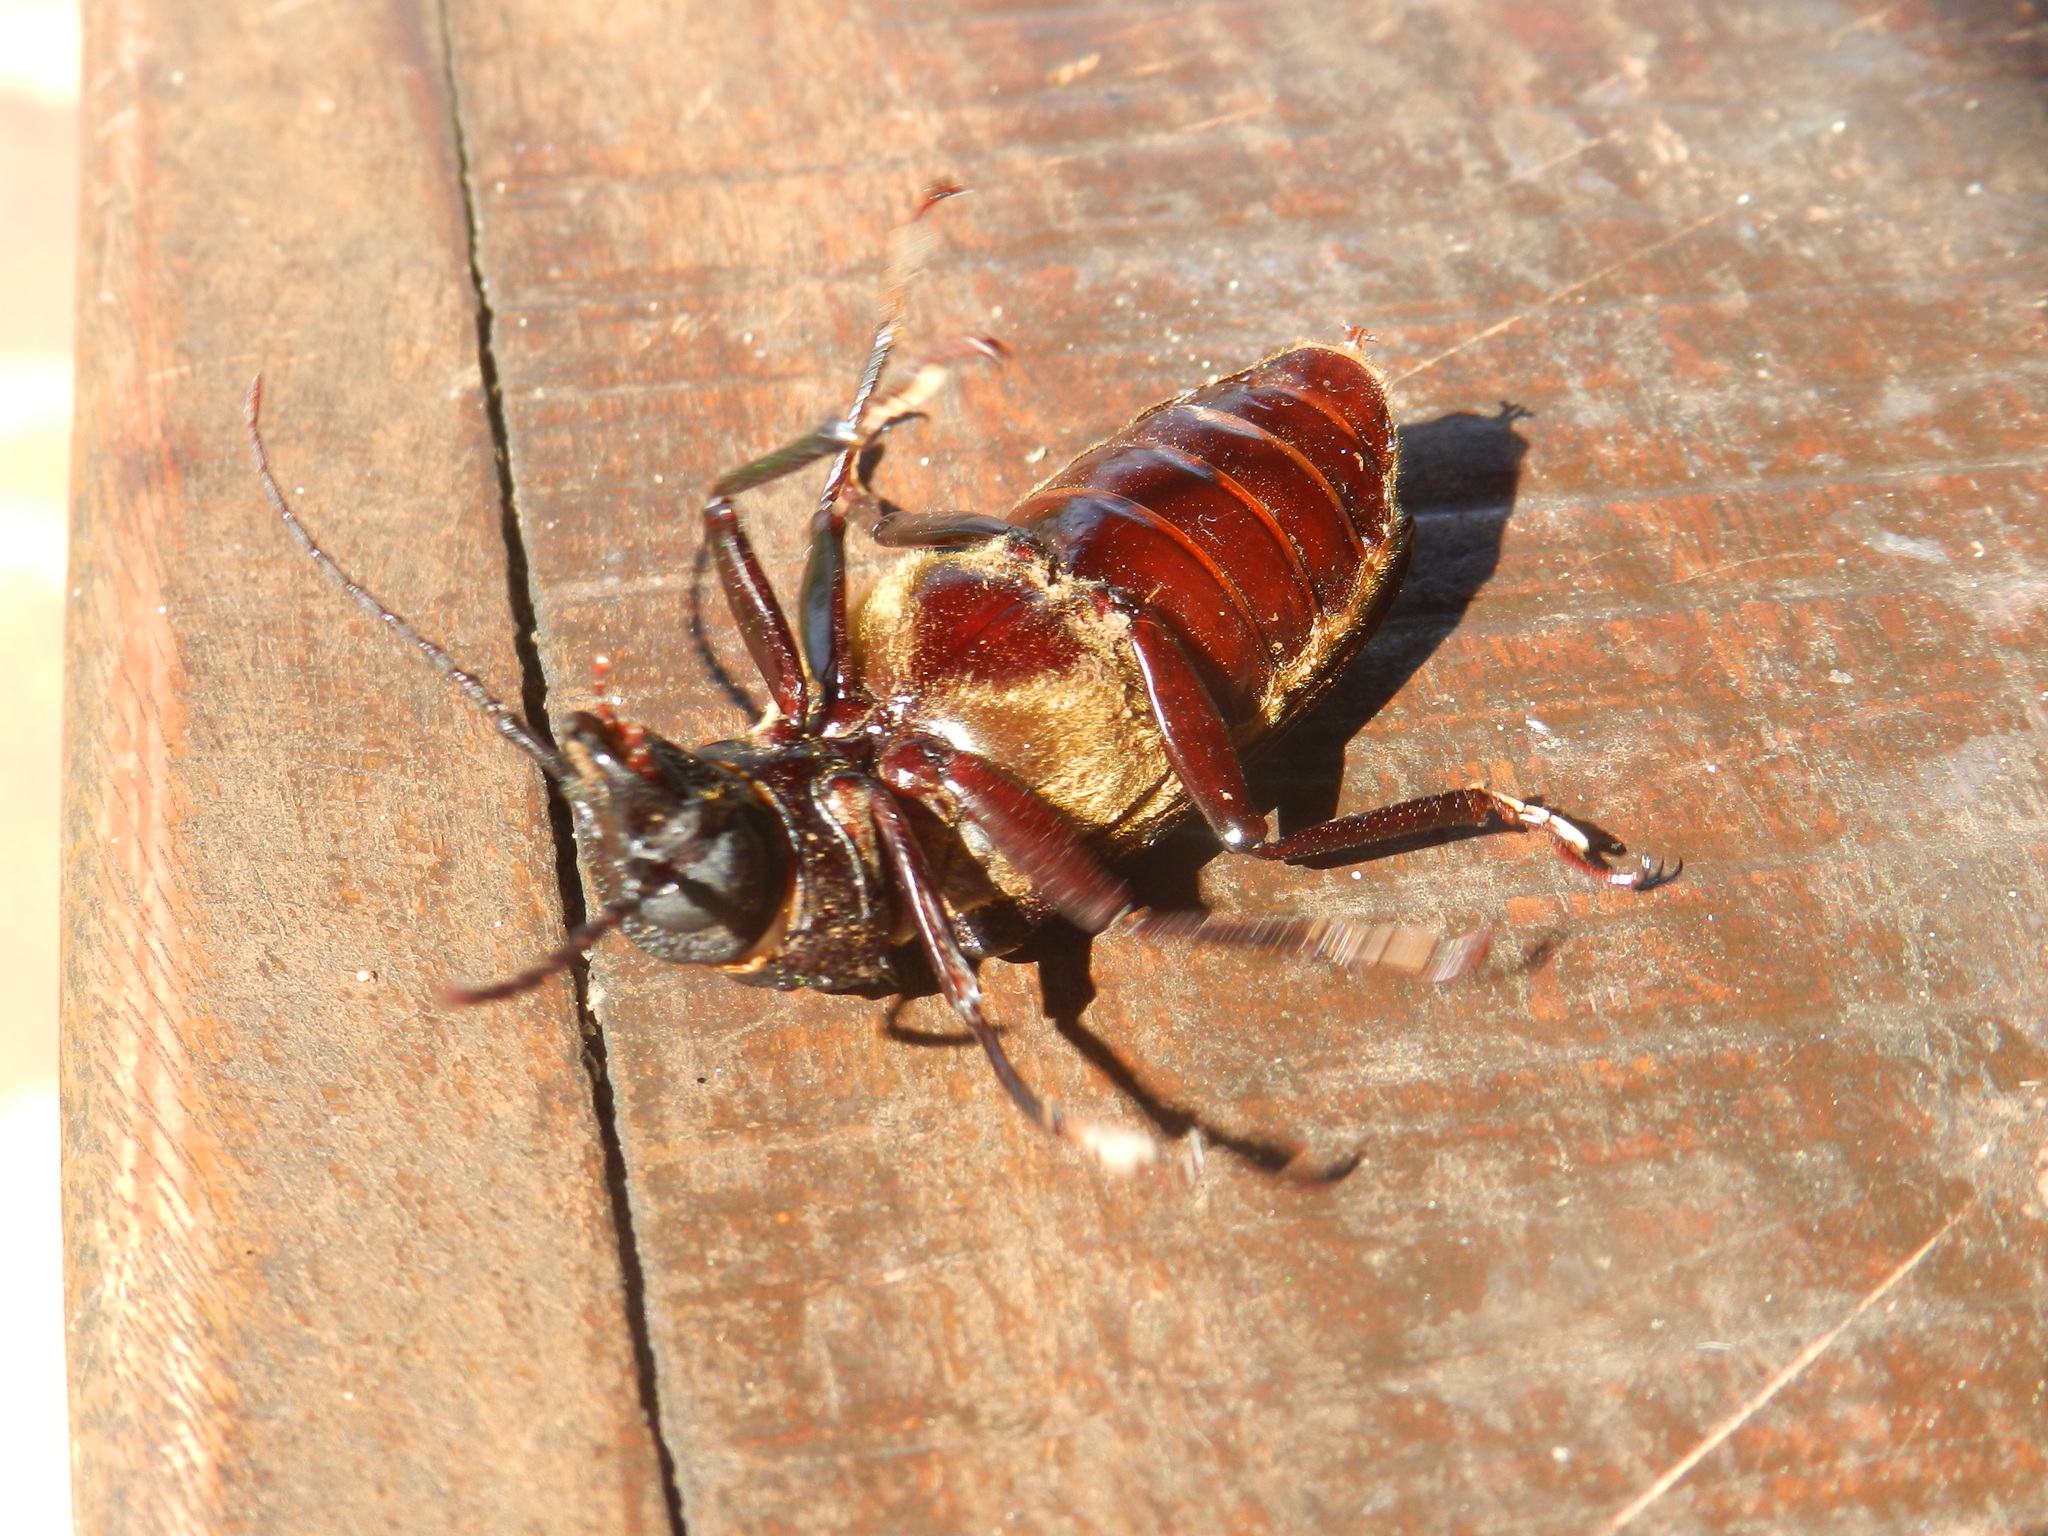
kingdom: Animalia
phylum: Arthropoda
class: Insecta
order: Coleoptera
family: Cerambycidae
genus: Mallodon
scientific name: Mallodon dasystomum
